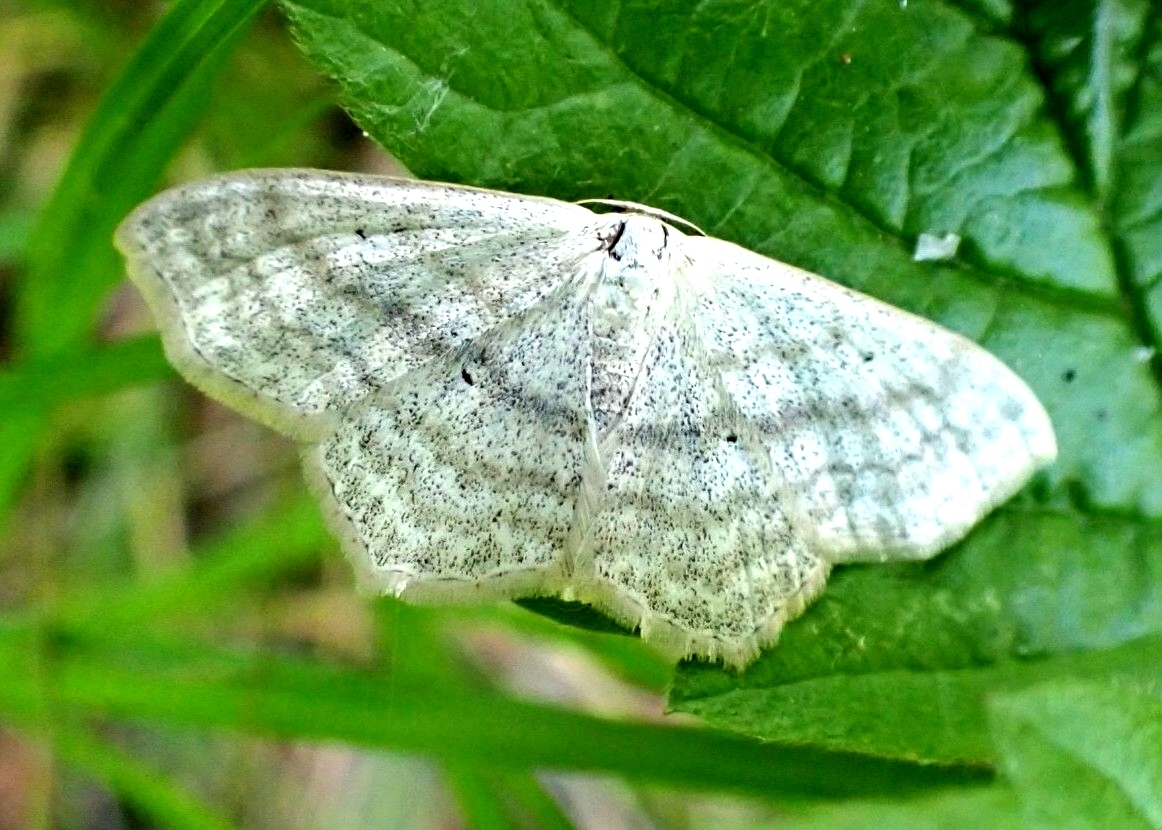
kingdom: Animalia
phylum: Arthropoda
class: Insecta
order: Lepidoptera
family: Geometridae
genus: Scopula
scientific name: Scopula nigropunctata
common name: Sub-angled wave
